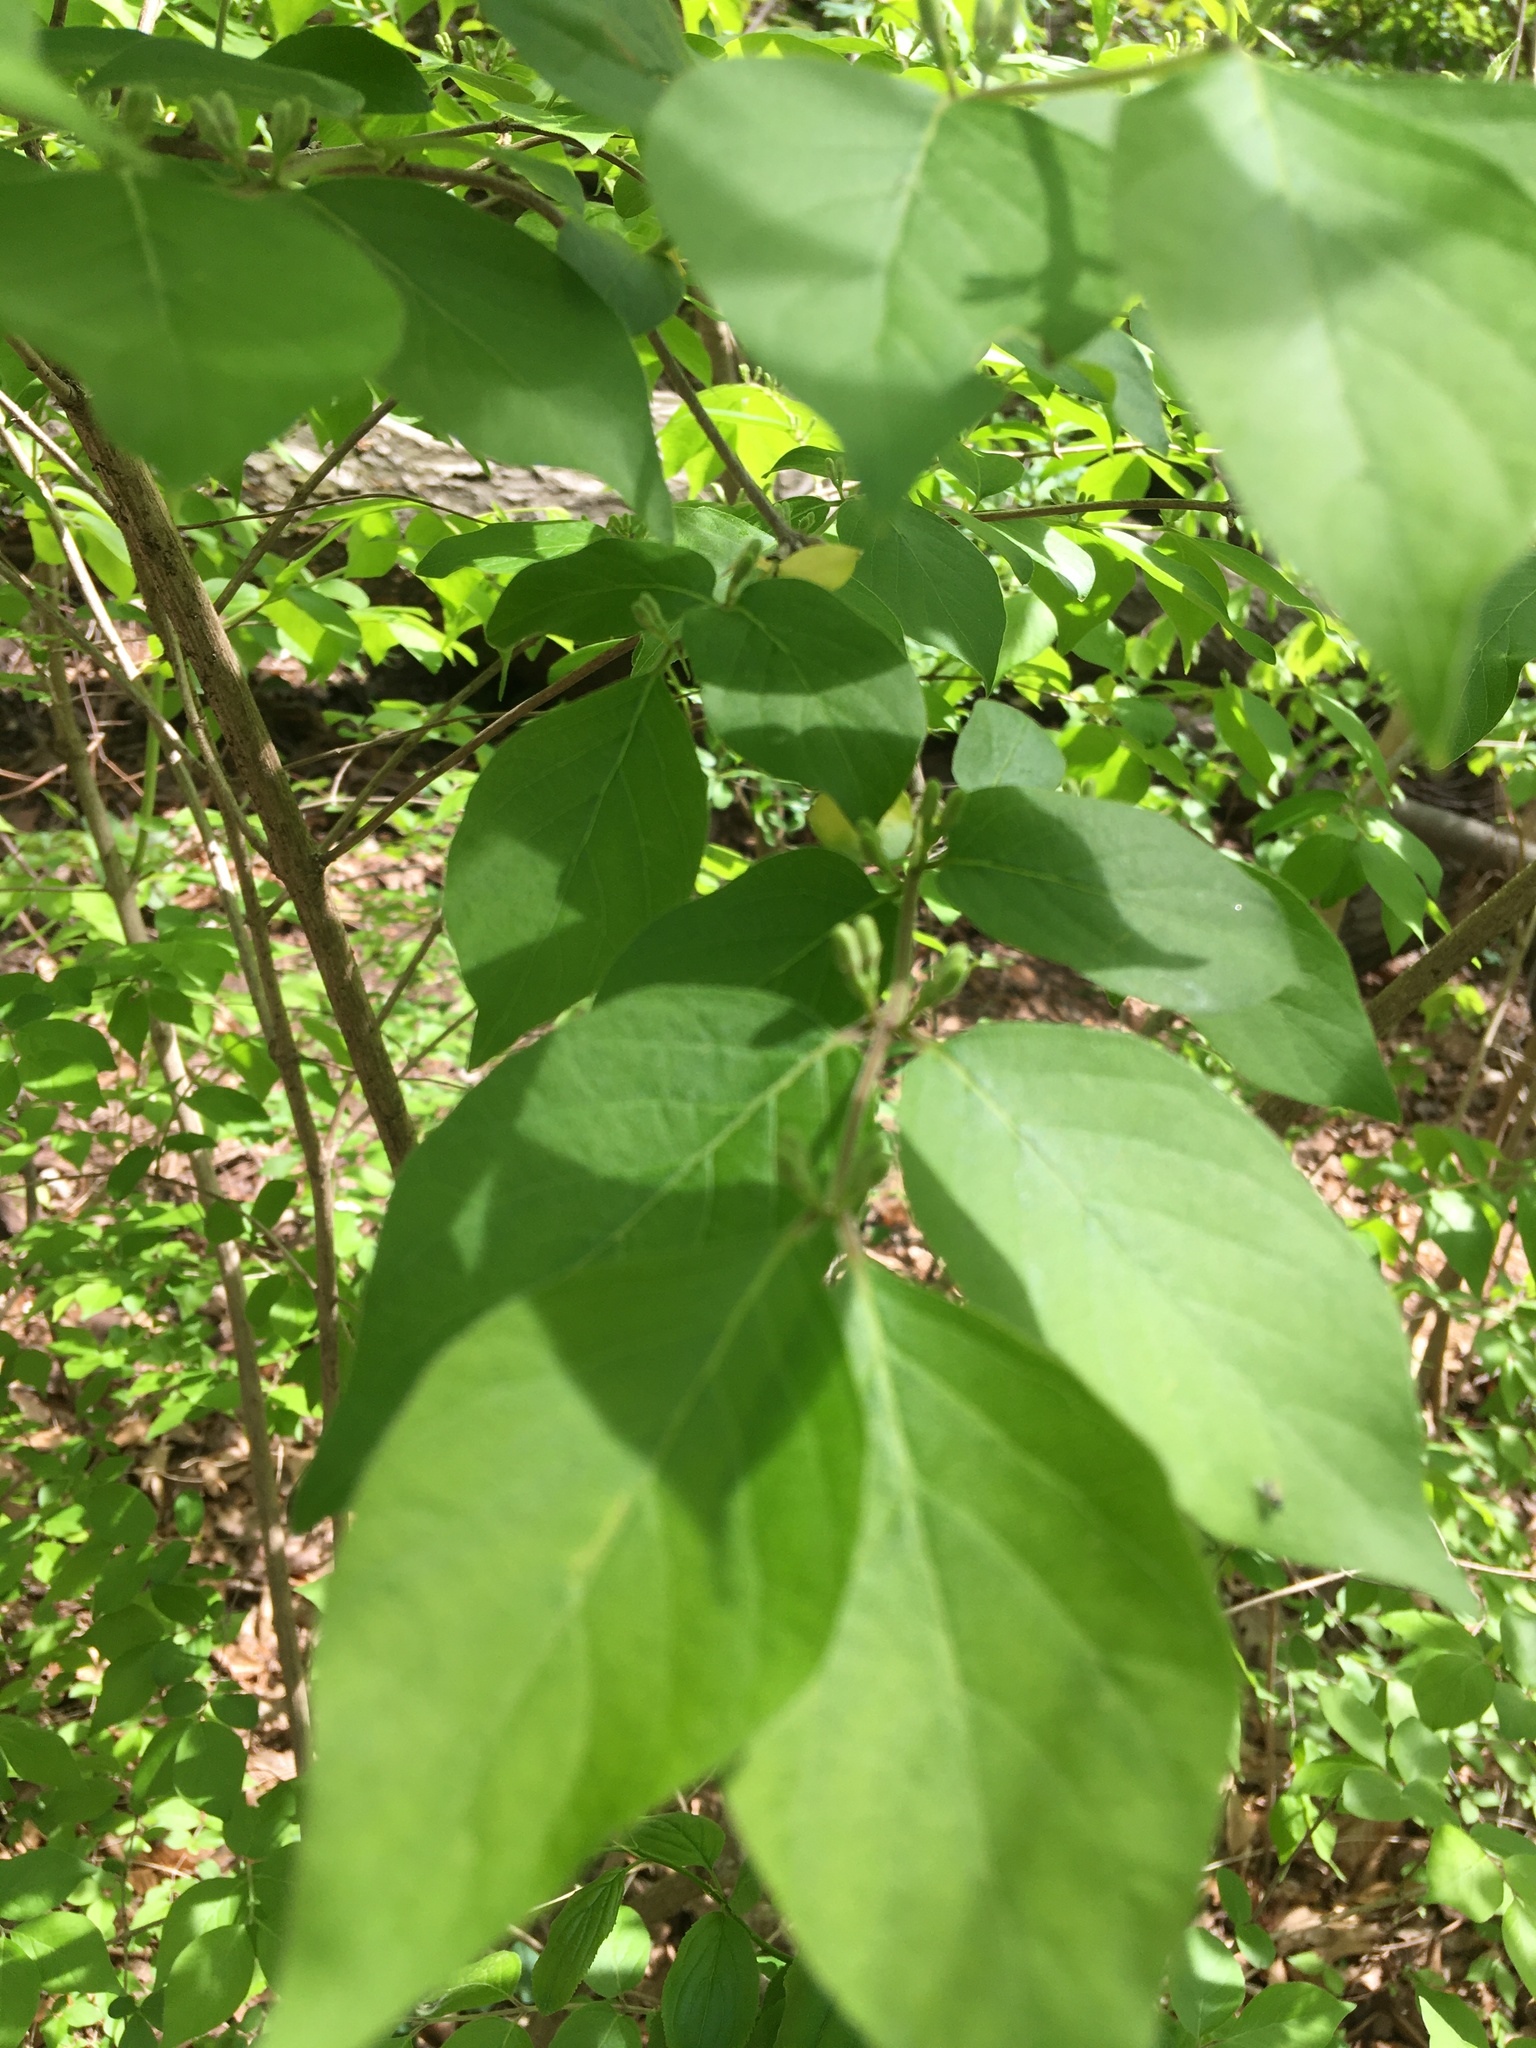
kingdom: Plantae
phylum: Tracheophyta
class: Magnoliopsida
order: Dipsacales
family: Caprifoliaceae
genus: Lonicera
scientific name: Lonicera maackii
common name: Amur honeysuckle
